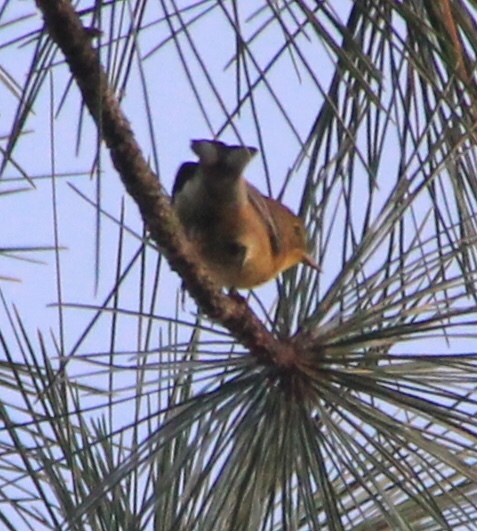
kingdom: Animalia
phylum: Chordata
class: Aves
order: Passeriformes
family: Parulidae
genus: Setophaga
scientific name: Setophaga pinus
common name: Pine warbler
